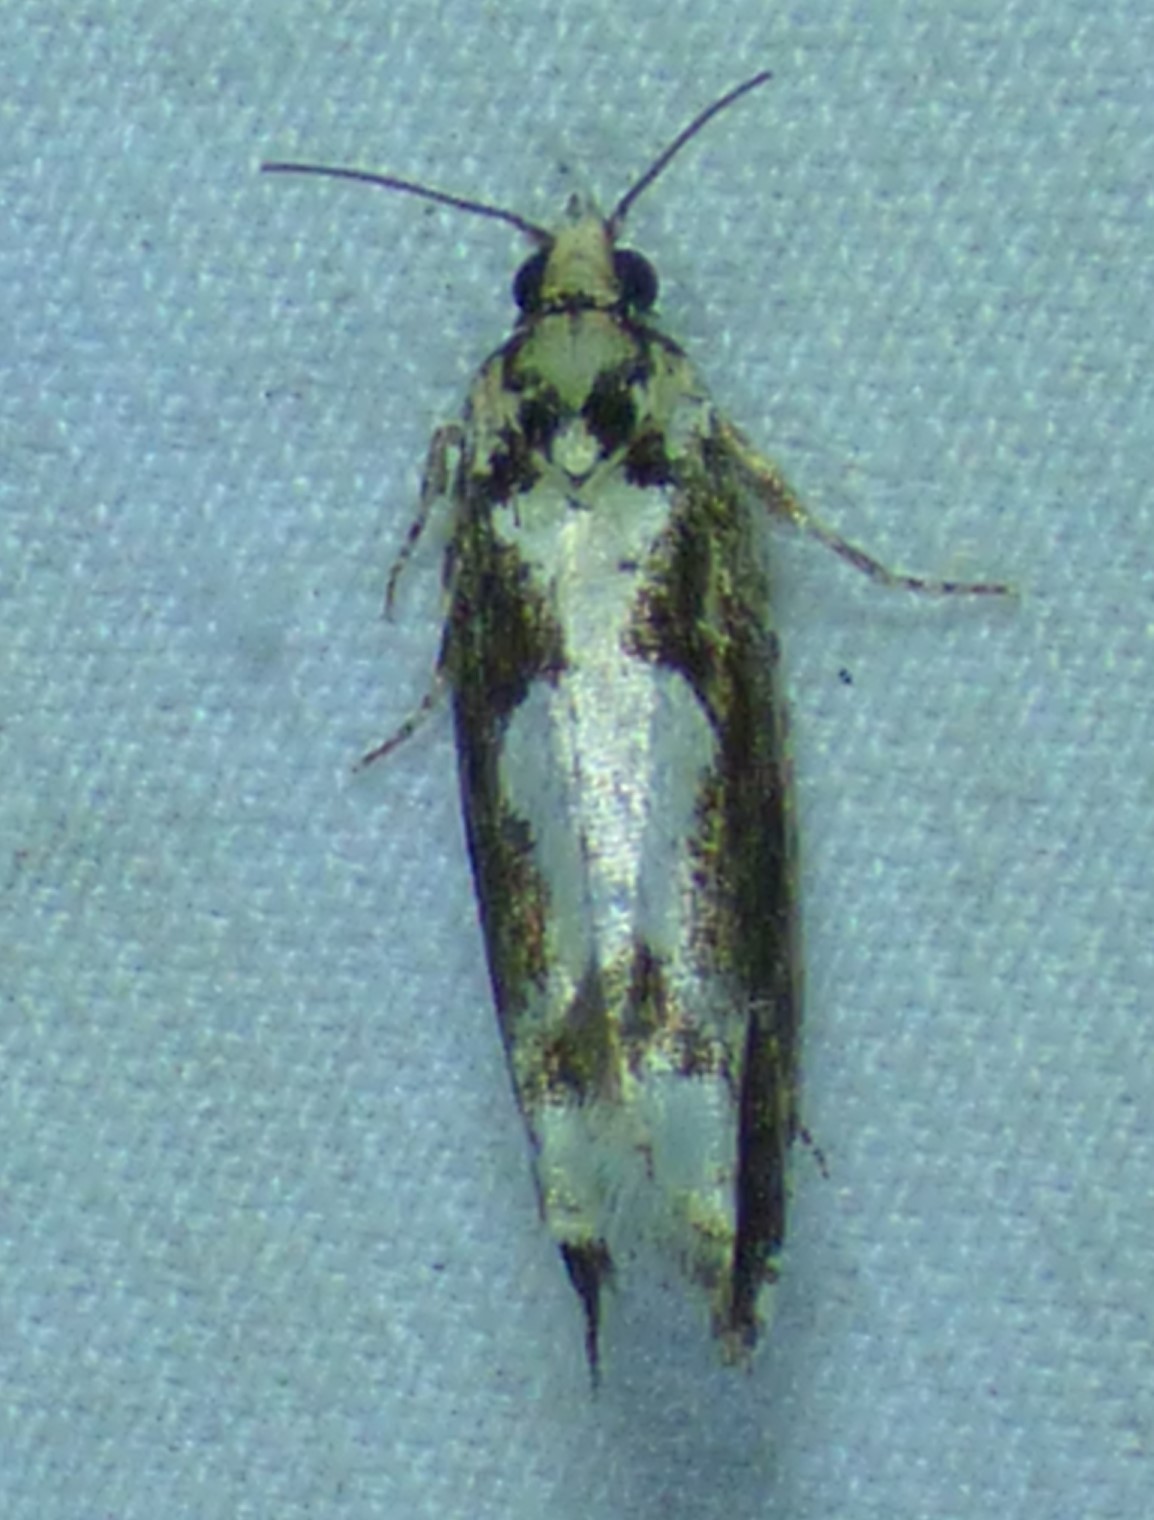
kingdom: Animalia
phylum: Arthropoda
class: Insecta
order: Lepidoptera
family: Tortricidae
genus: Chimoptesis
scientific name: Chimoptesis pennsylvaniana
